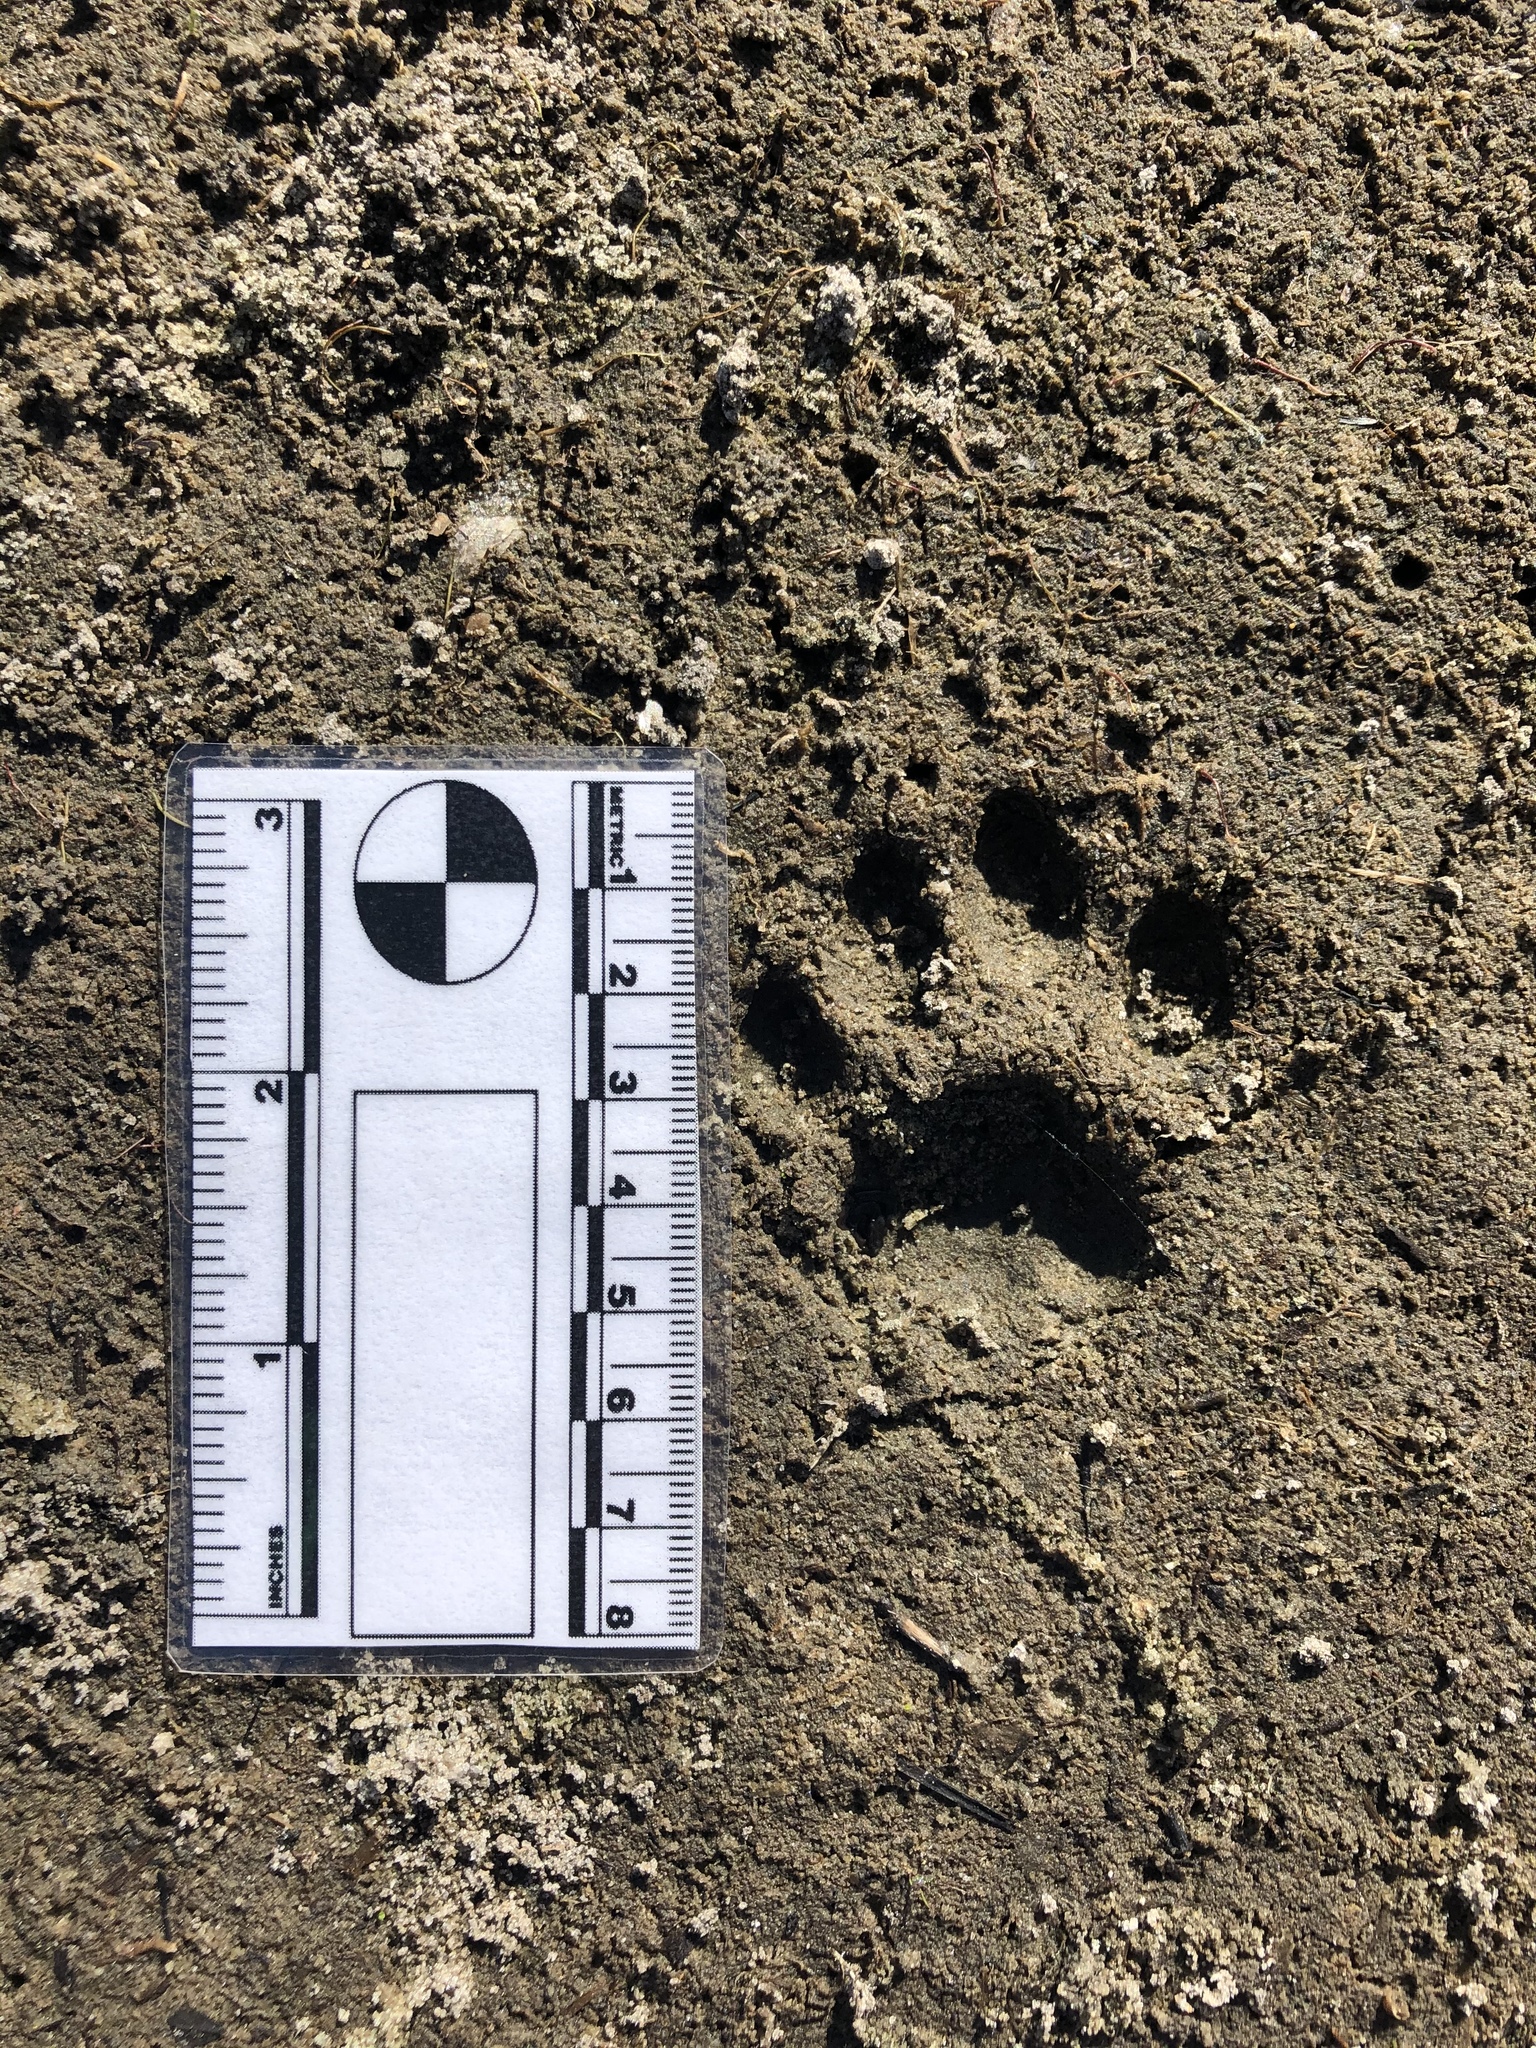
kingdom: Animalia
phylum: Chordata
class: Mammalia
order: Carnivora
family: Felidae
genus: Lynx
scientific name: Lynx rufus
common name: Bobcat
